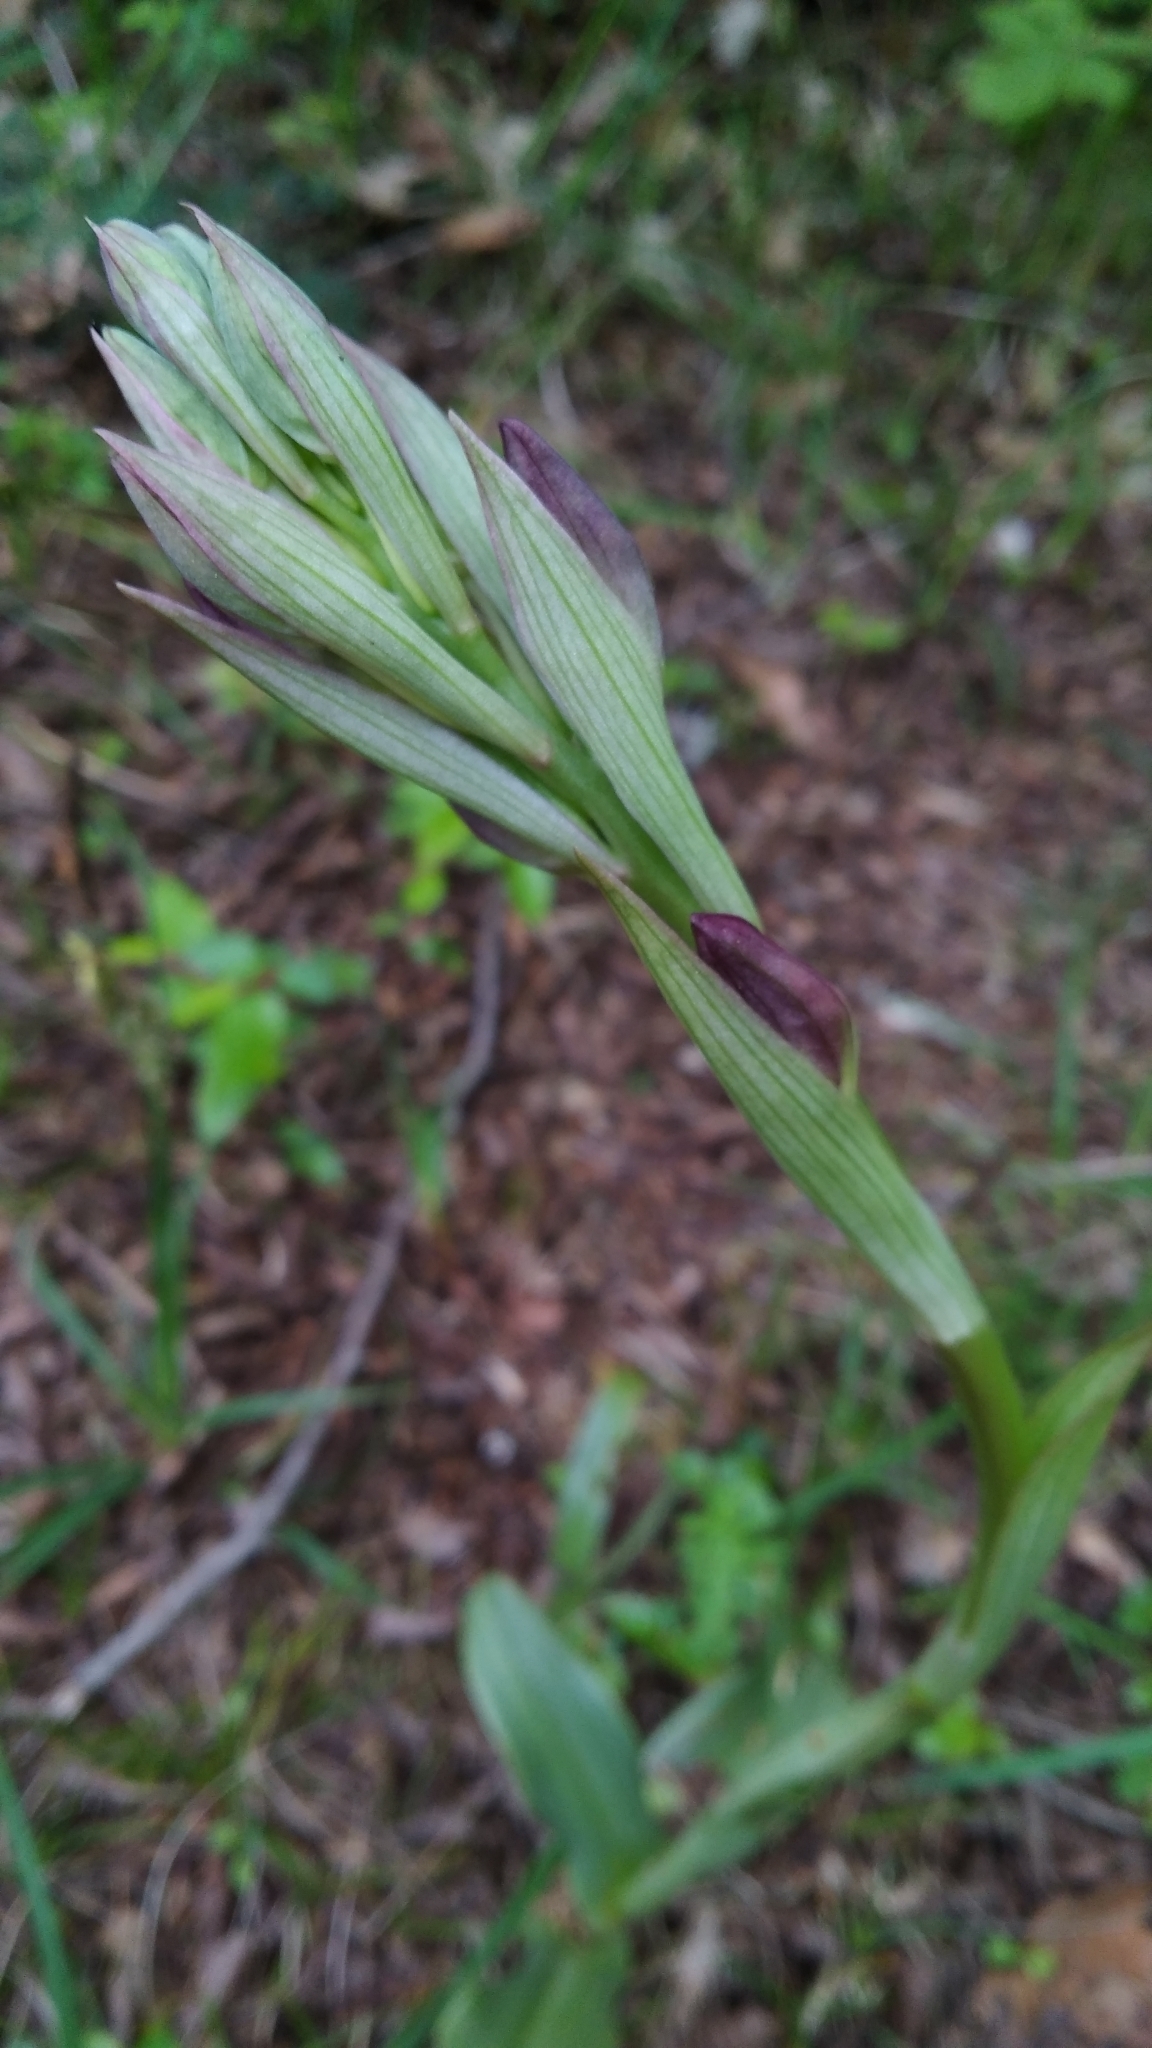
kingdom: Plantae
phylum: Tracheophyta
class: Liliopsida
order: Asparagales
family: Orchidaceae
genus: Himantoglossum
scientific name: Himantoglossum comperianum
